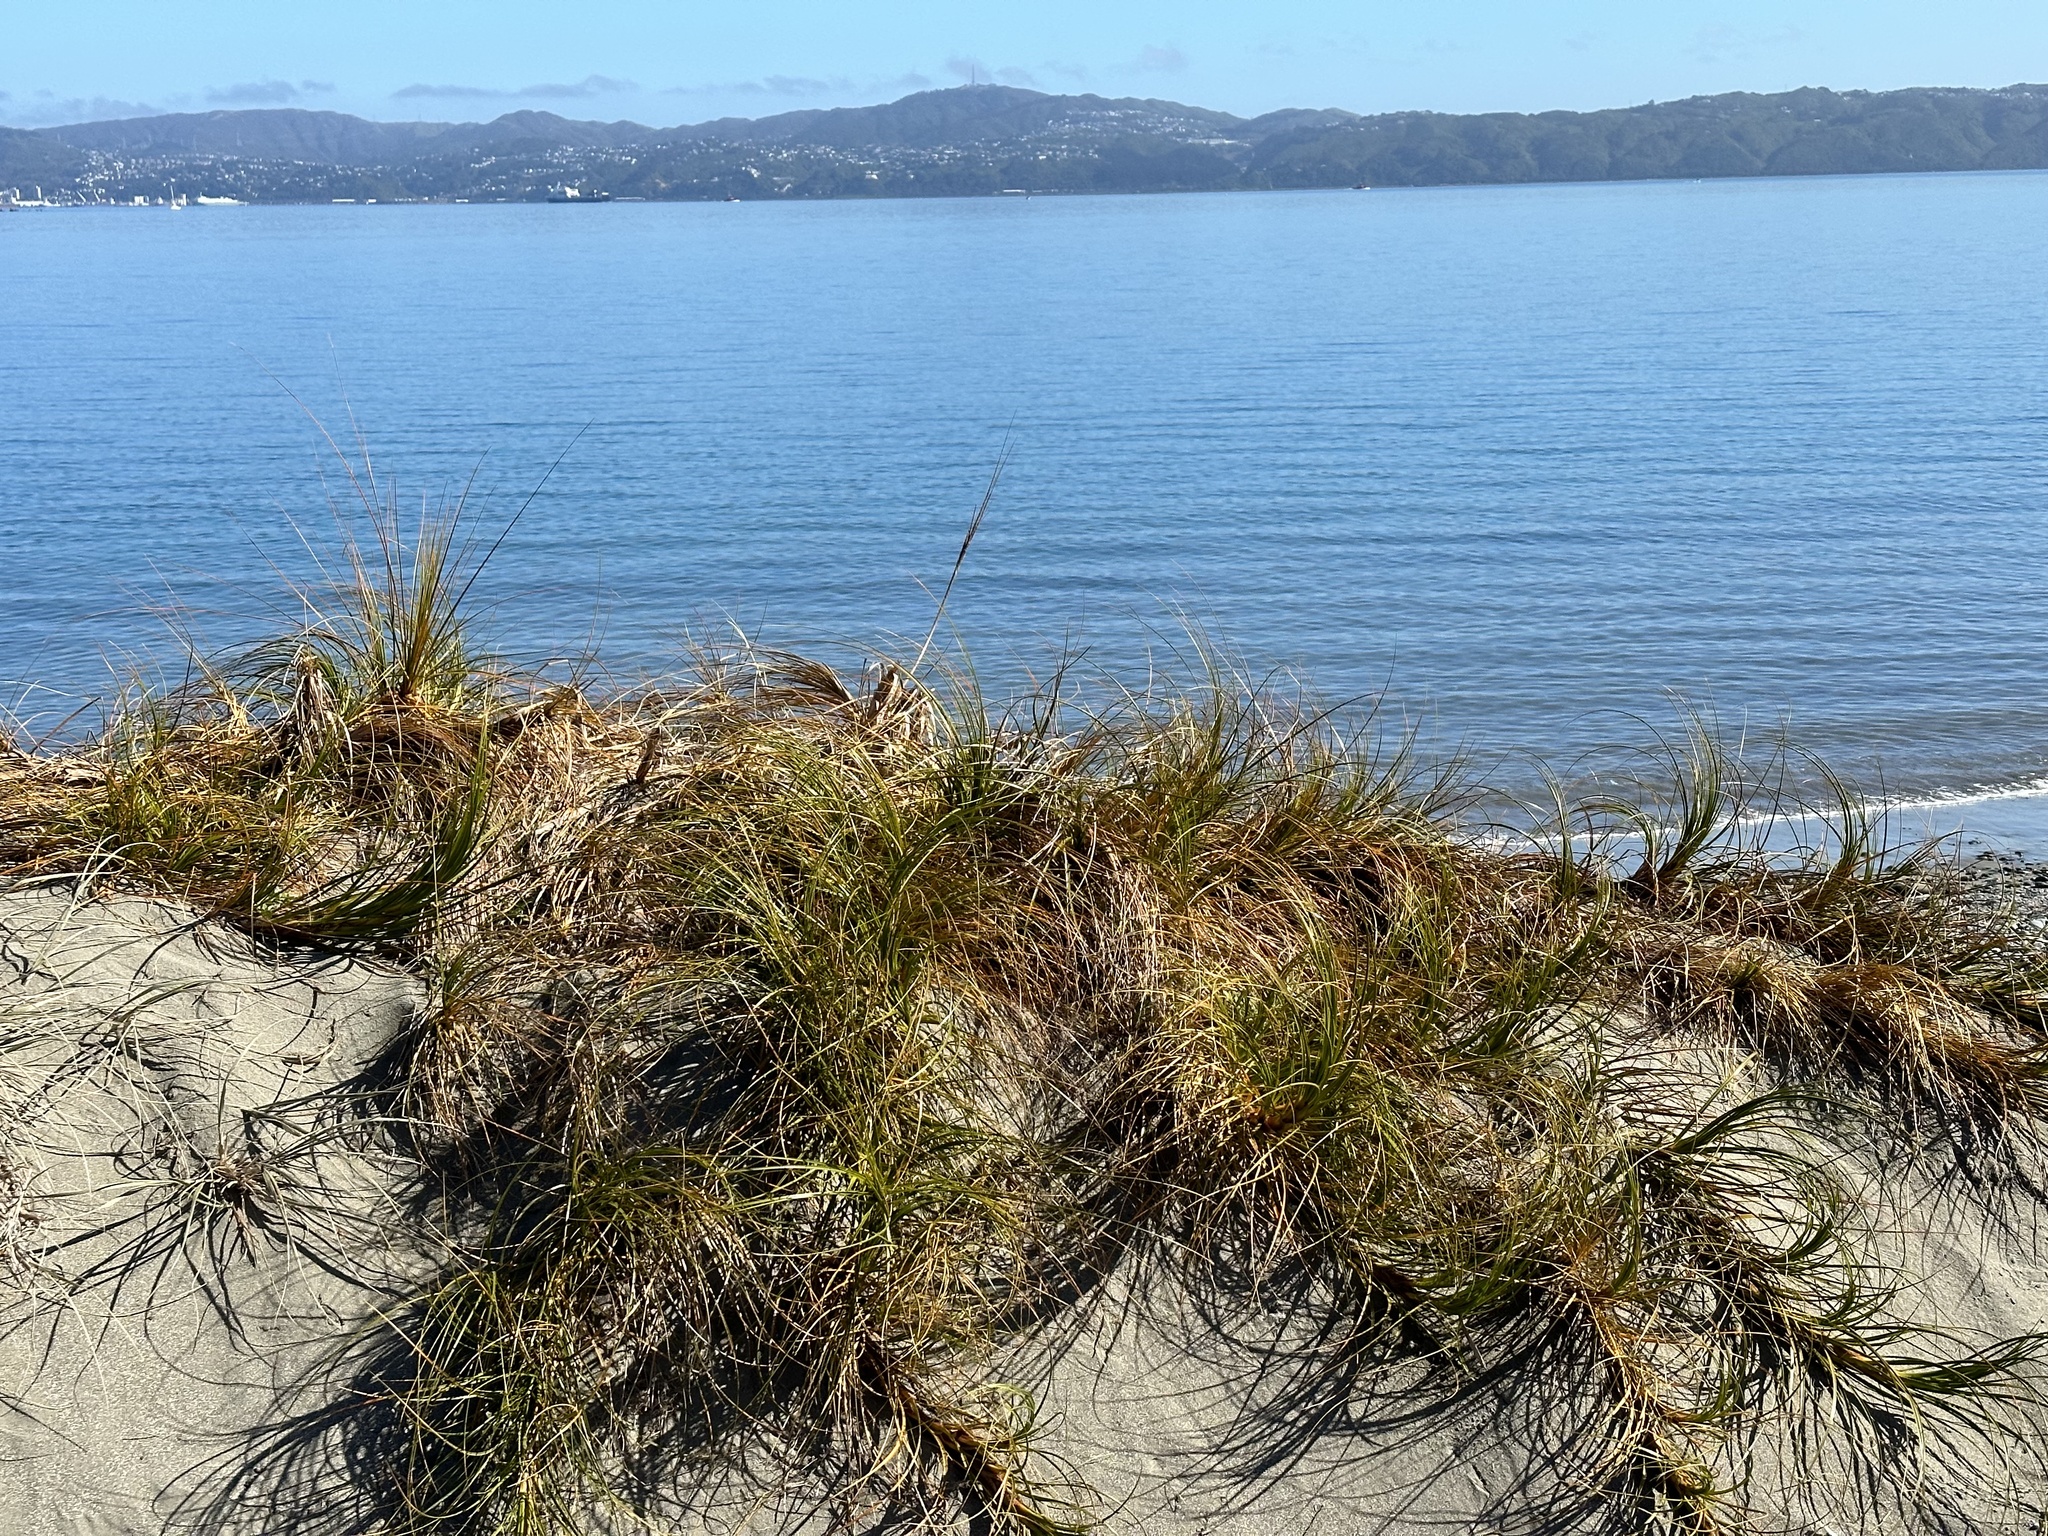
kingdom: Plantae
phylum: Tracheophyta
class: Liliopsida
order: Poales
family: Cyperaceae
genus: Ficinia
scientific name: Ficinia spiralis
